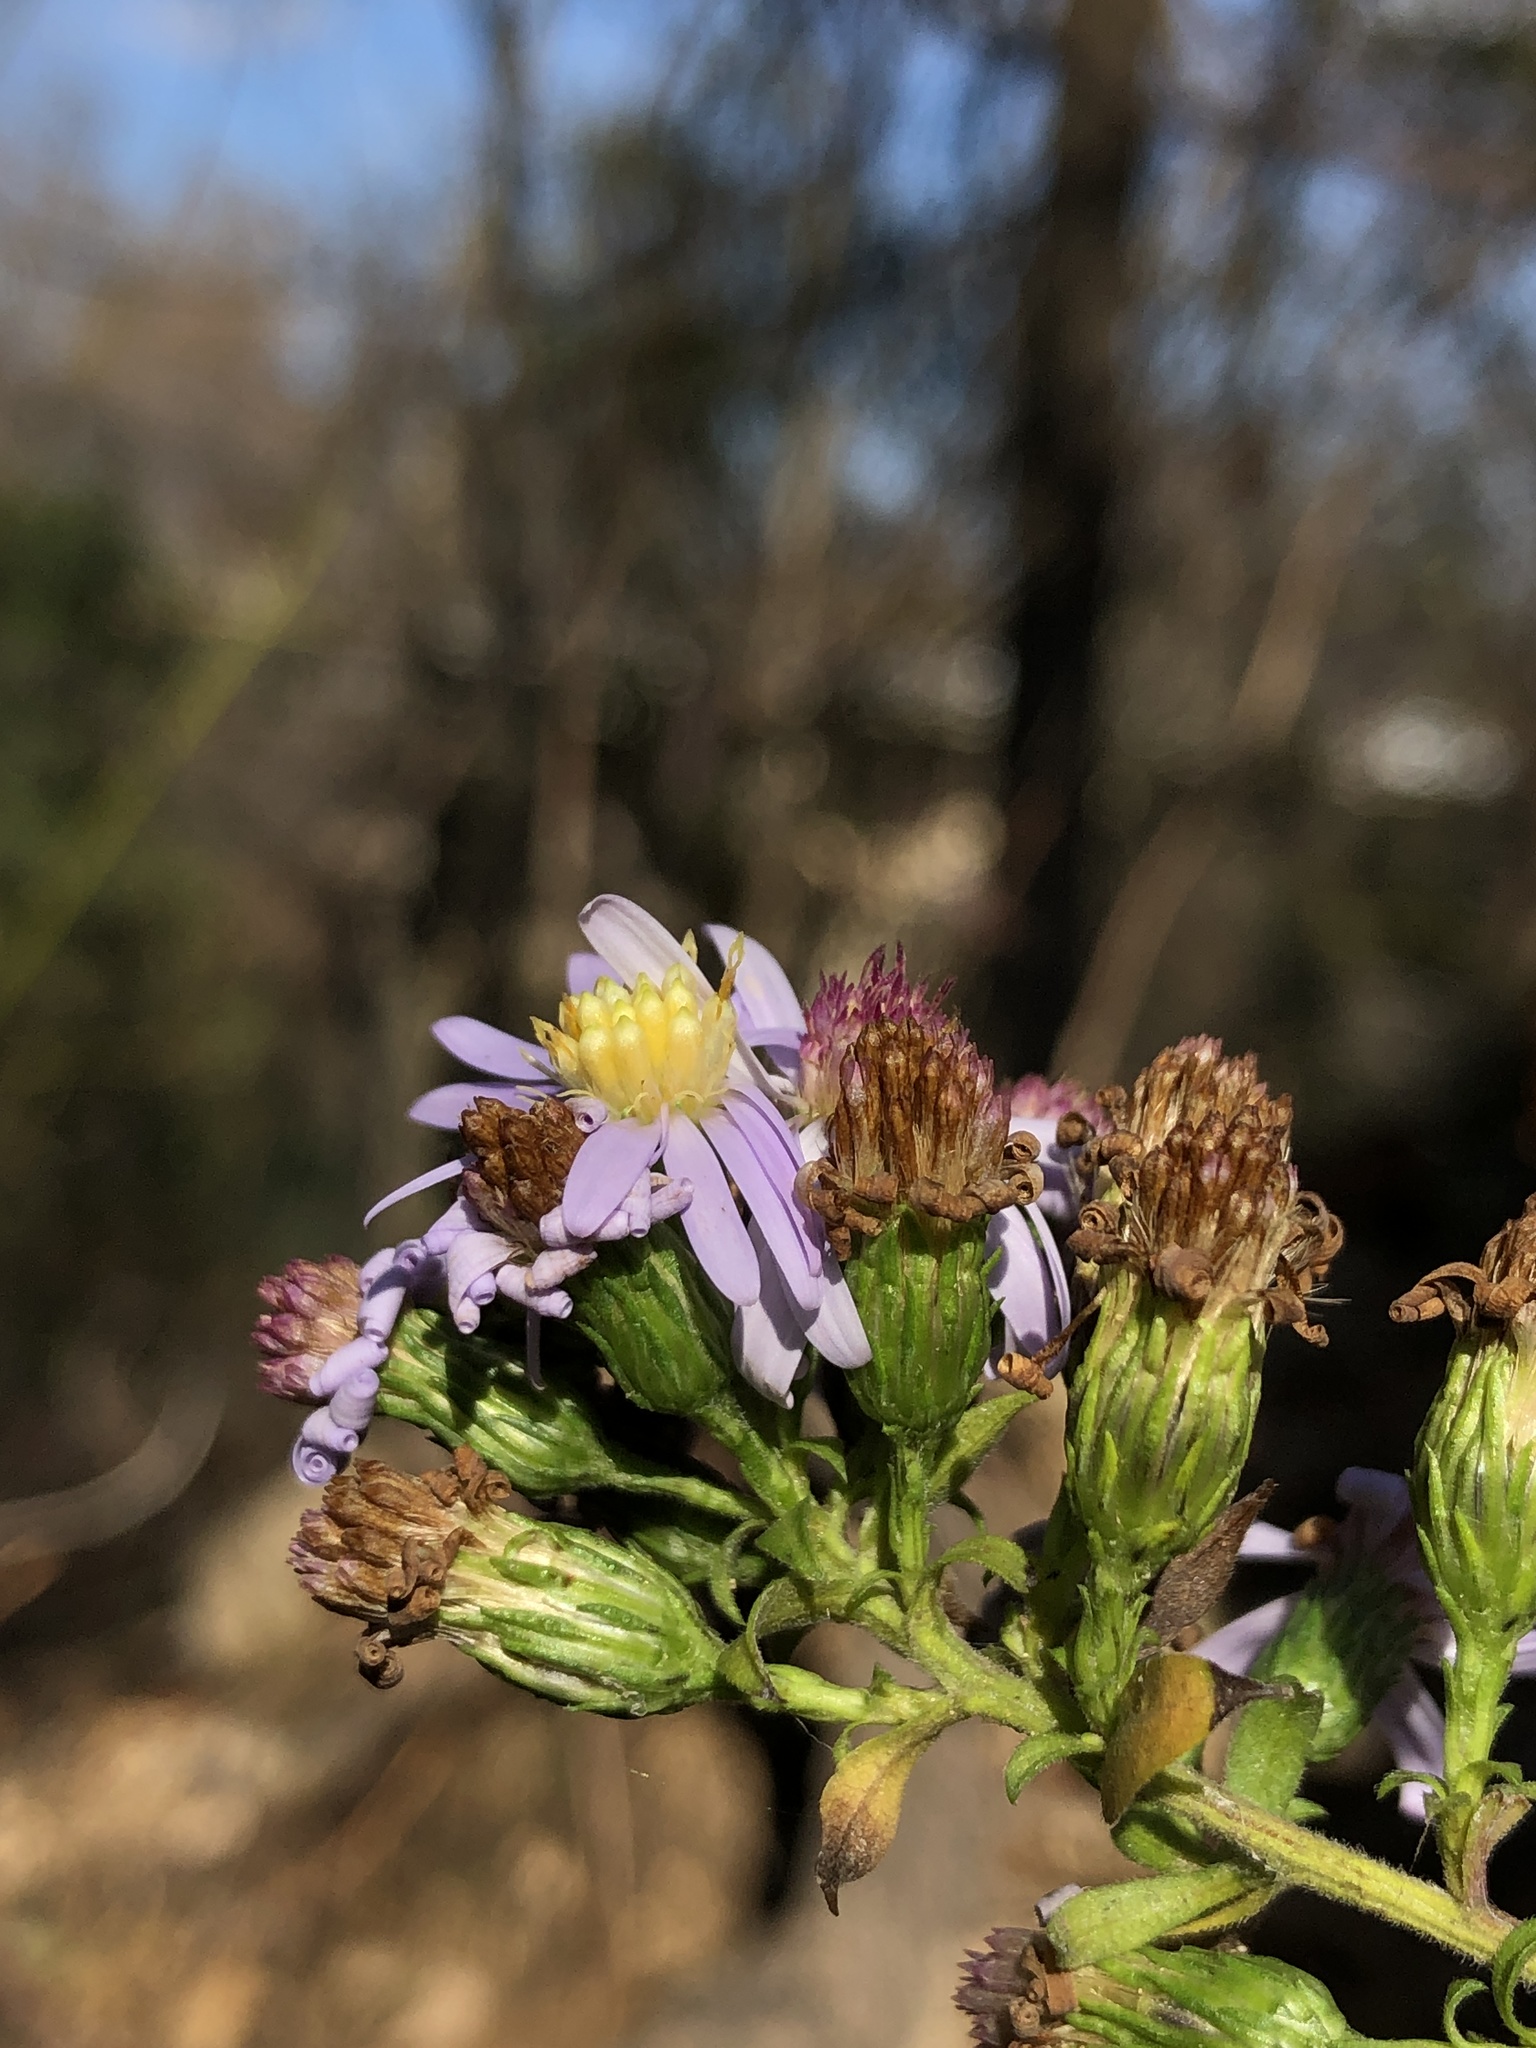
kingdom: Plantae
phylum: Tracheophyta
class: Magnoliopsida
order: Asterales
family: Asteraceae
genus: Symphyotrichum
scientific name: Symphyotrichum drummondii
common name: Drummond's aster
